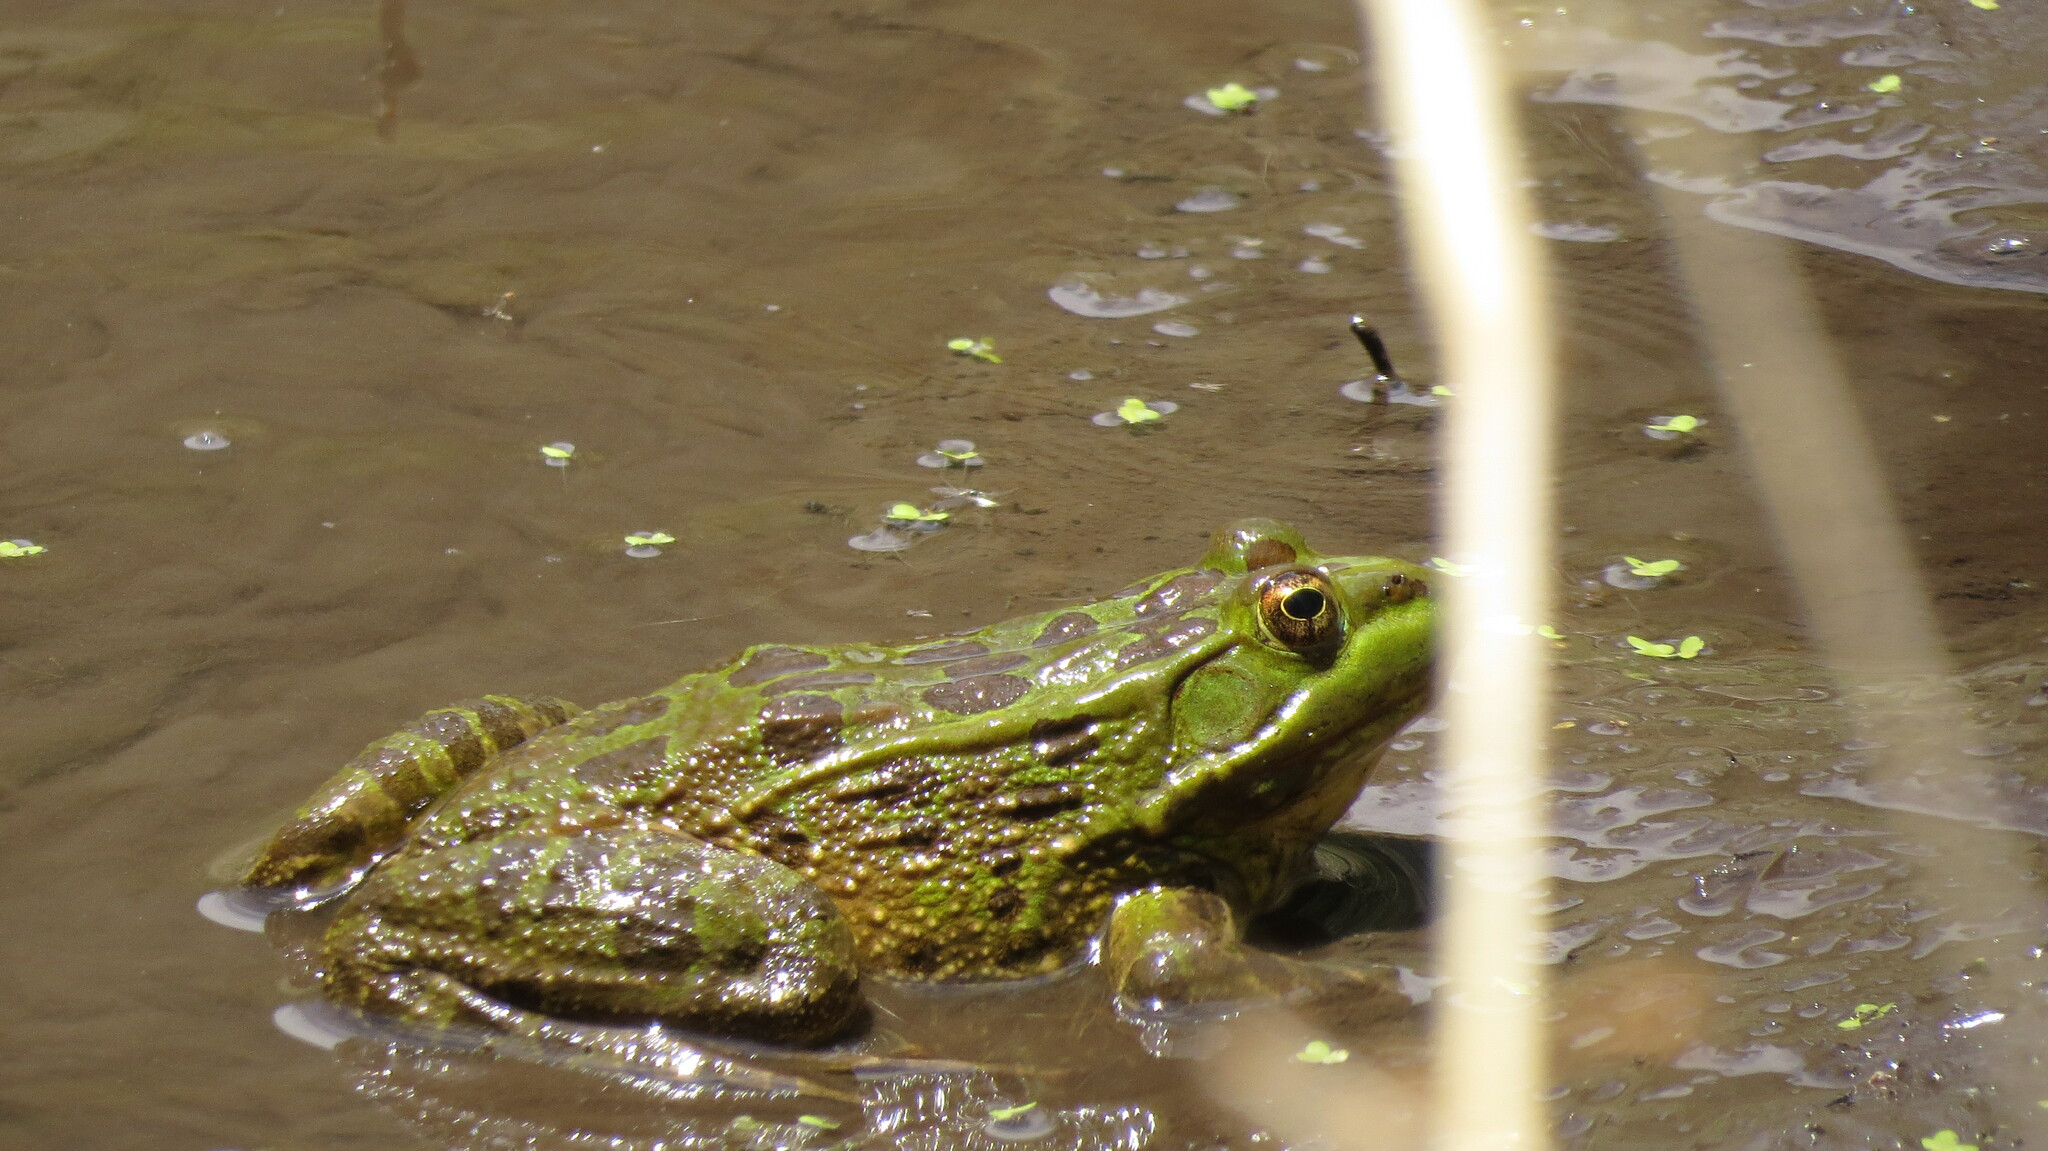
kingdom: Animalia
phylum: Chordata
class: Amphibia
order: Anura
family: Ranidae
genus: Lithobates
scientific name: Lithobates chiricahuensis
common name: Chiricahua leopard frog
